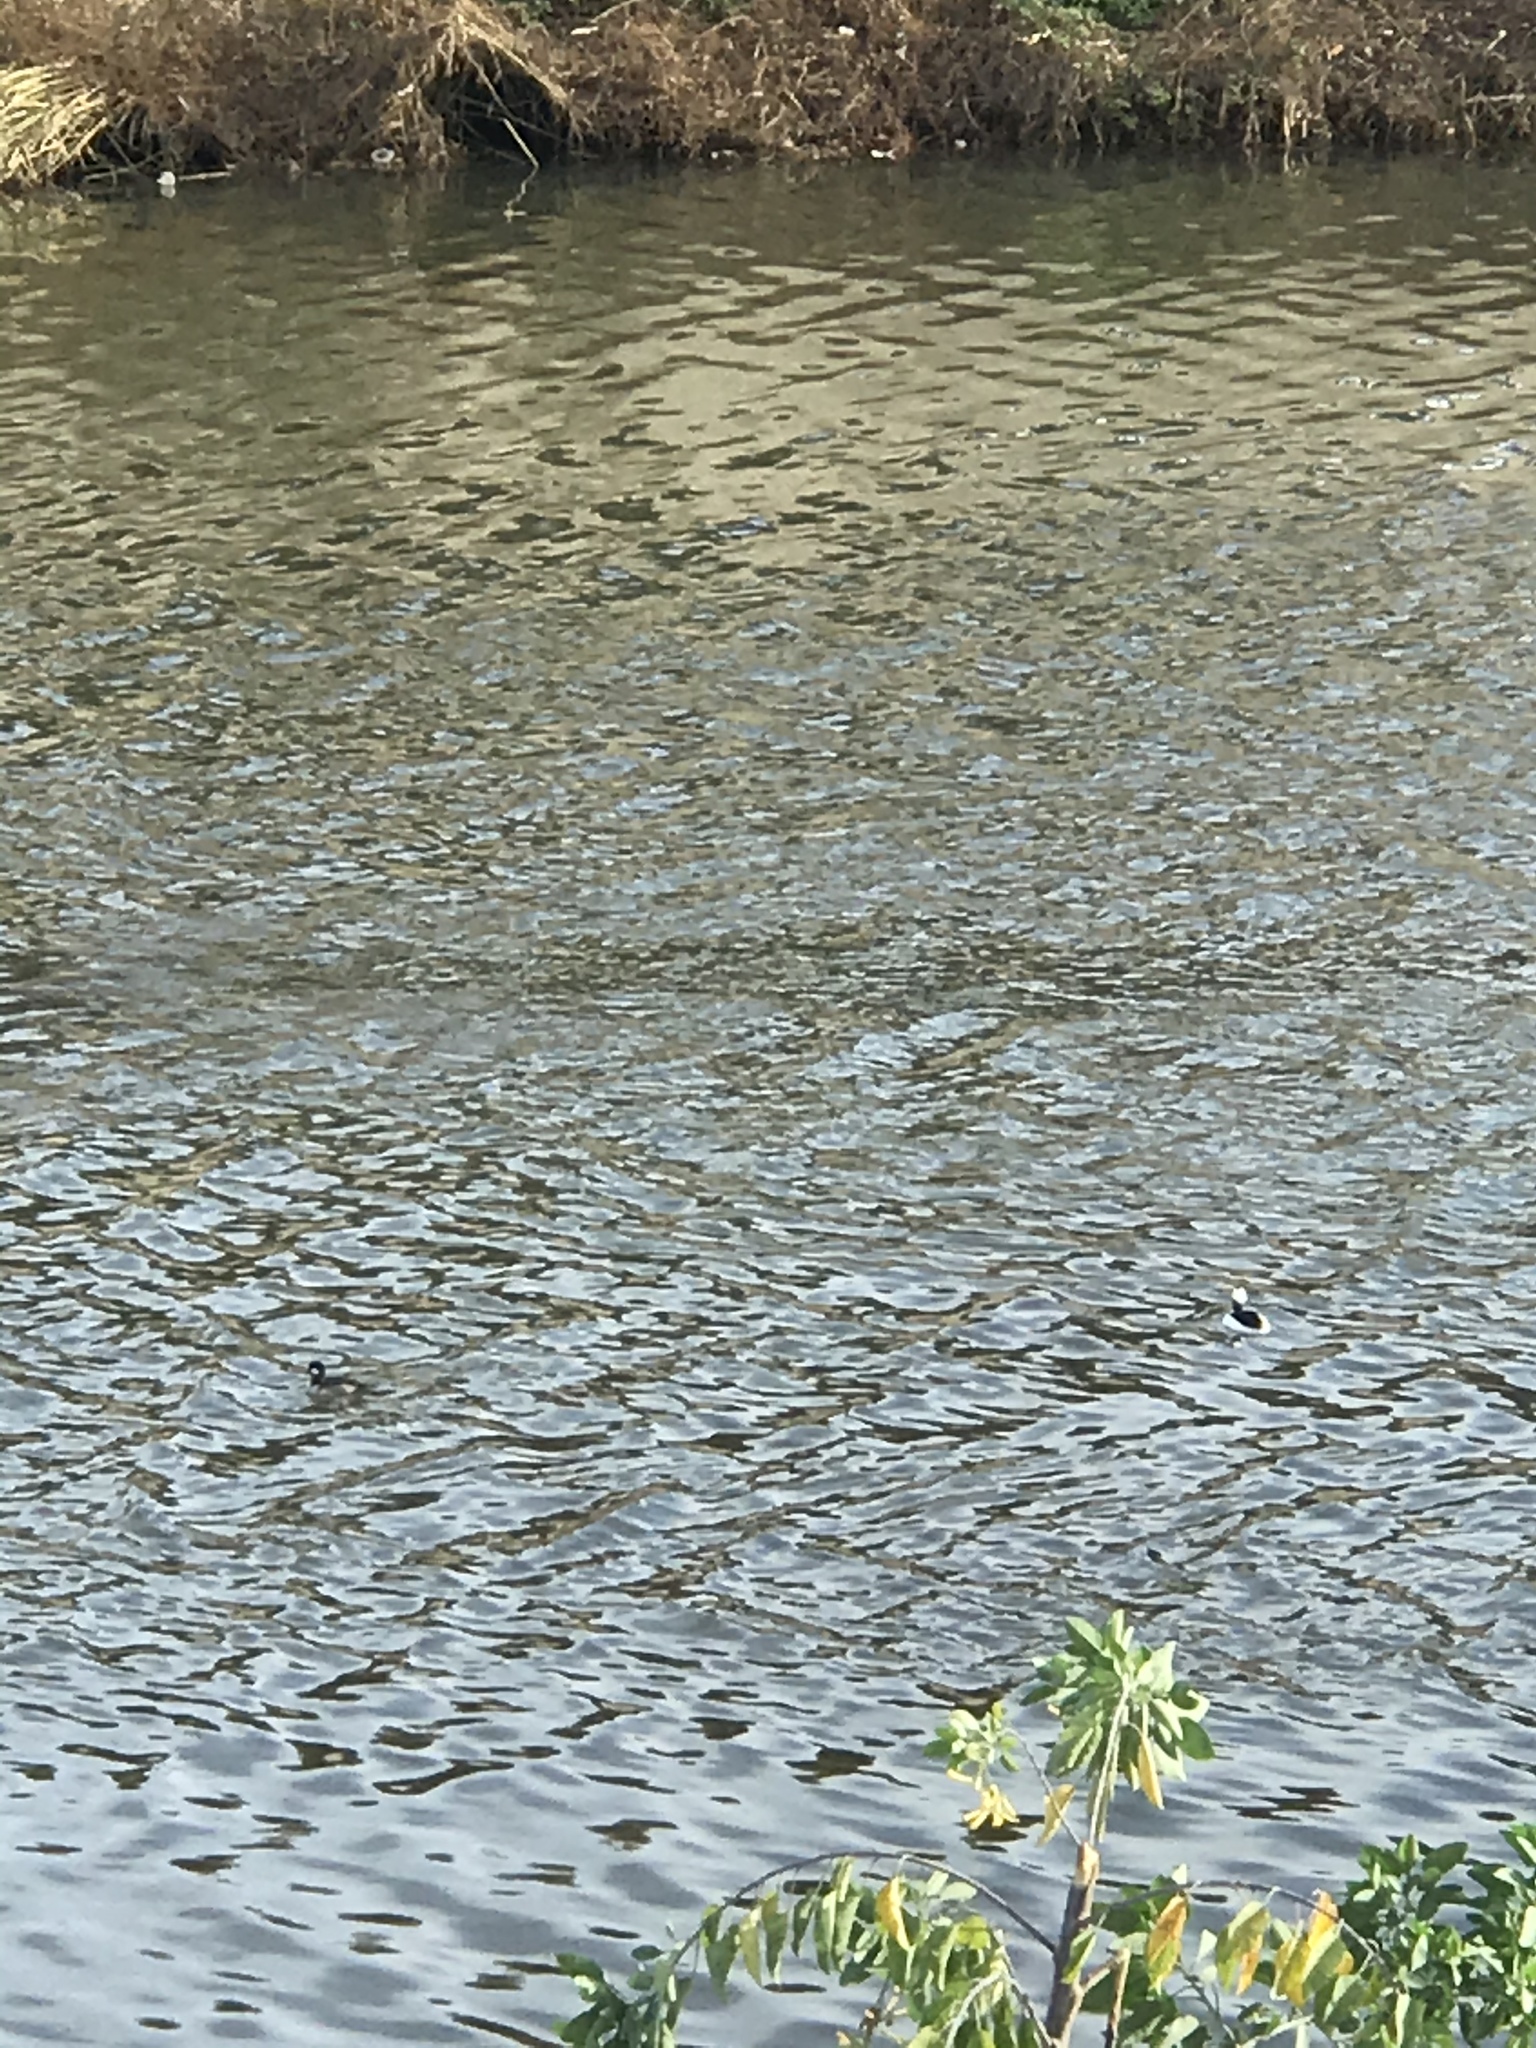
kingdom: Animalia
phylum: Chordata
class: Aves
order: Anseriformes
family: Anatidae
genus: Bucephala
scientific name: Bucephala albeola
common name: Bufflehead
